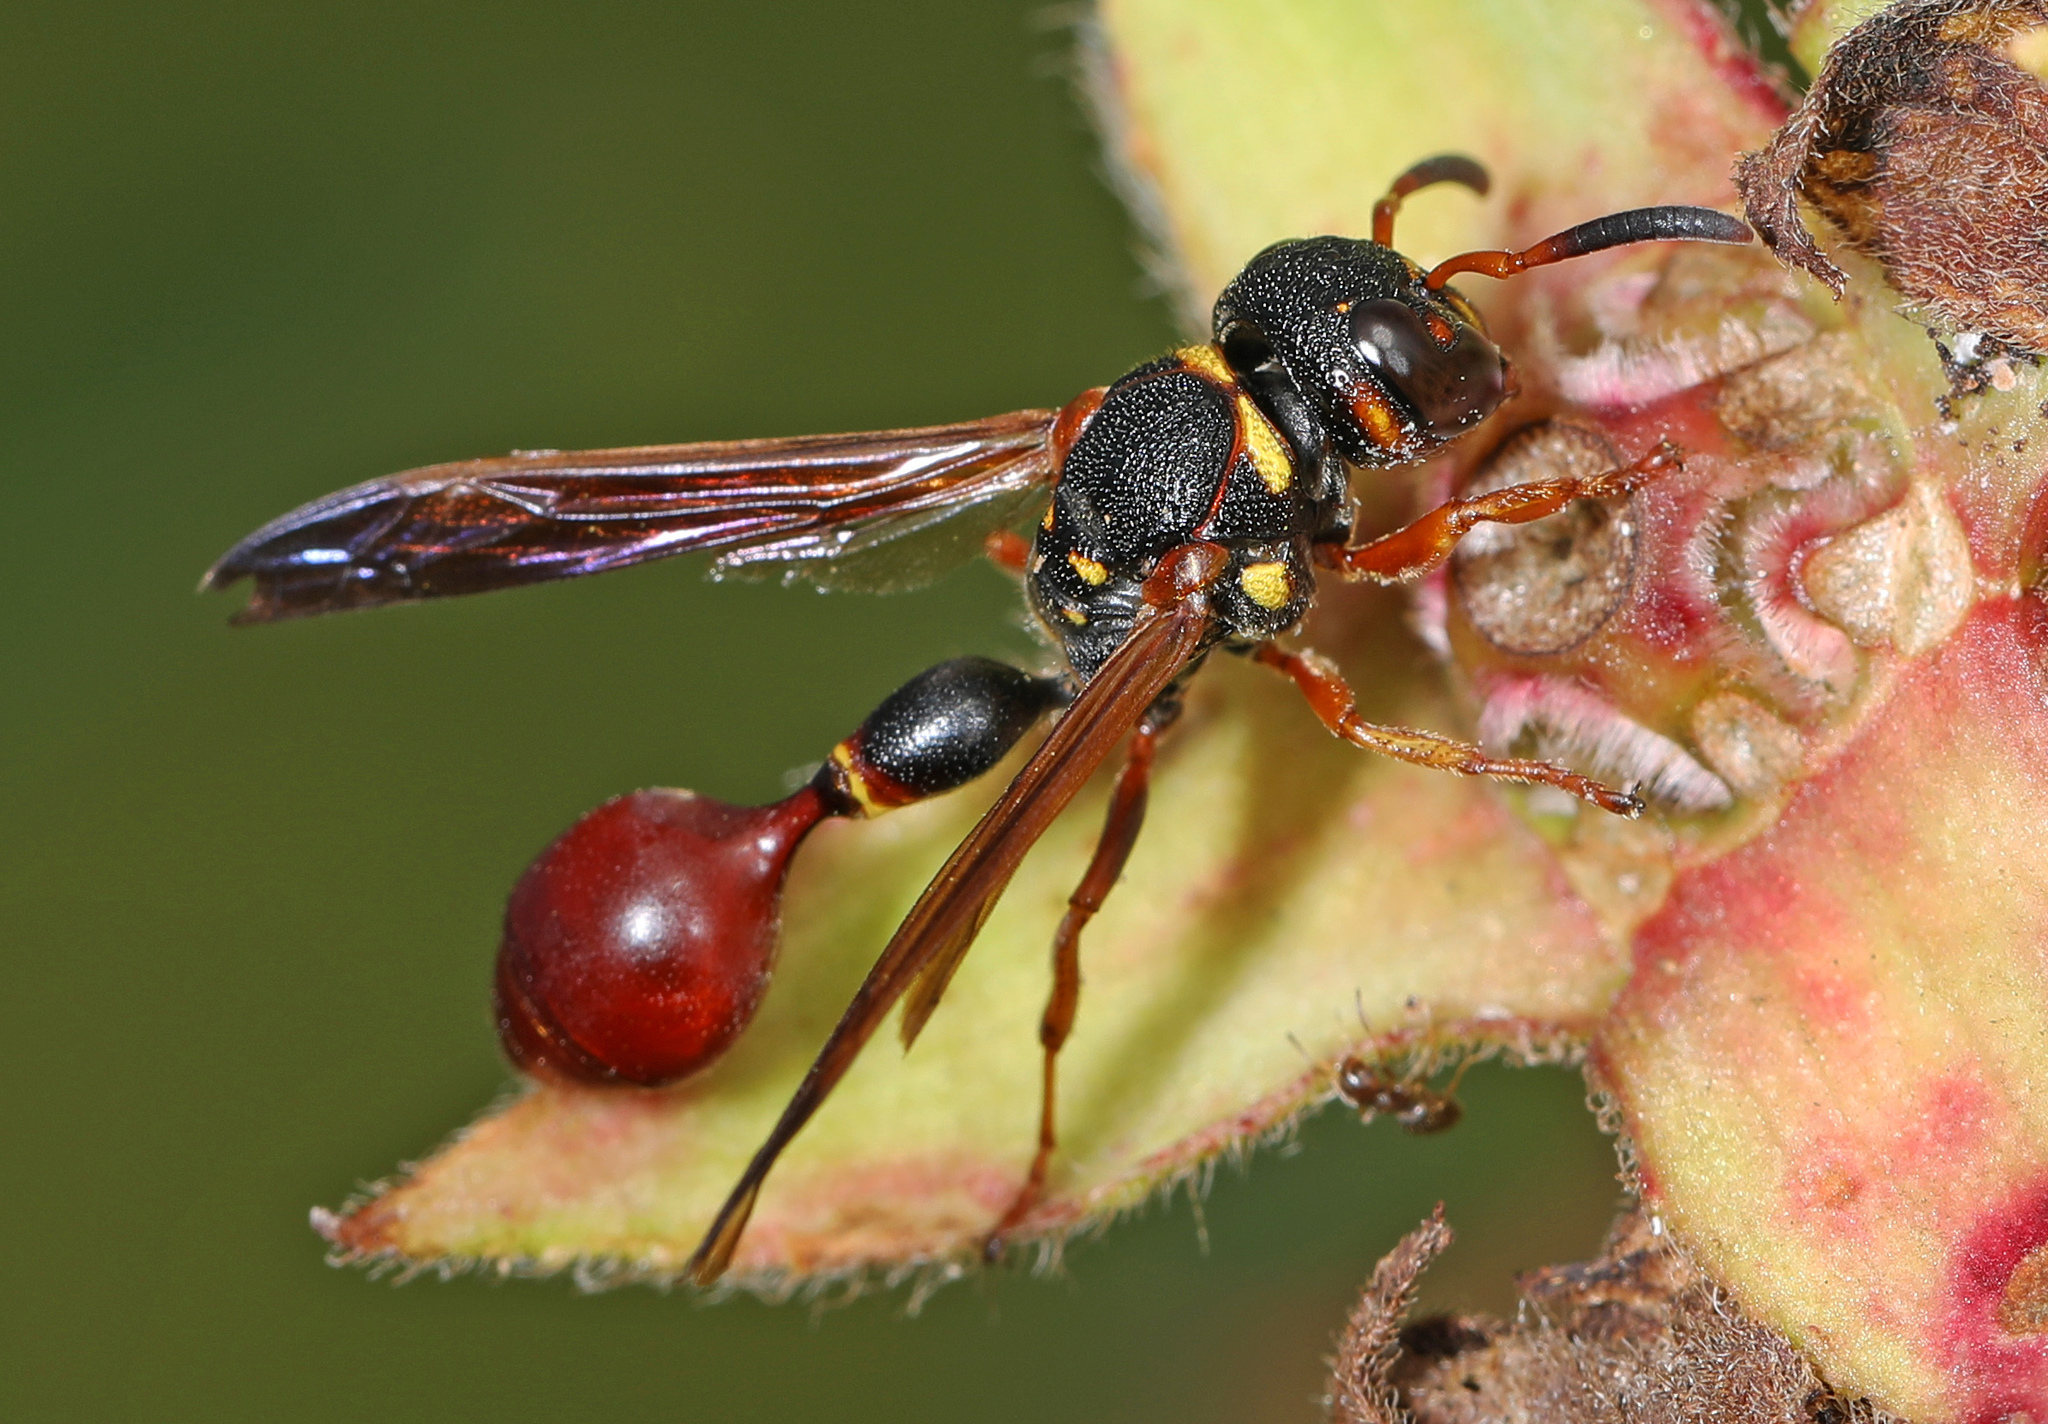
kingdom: Animalia
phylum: Arthropoda
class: Insecta
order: Hymenoptera
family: Eumenidae
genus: Zethus
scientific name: Zethus slossonae
